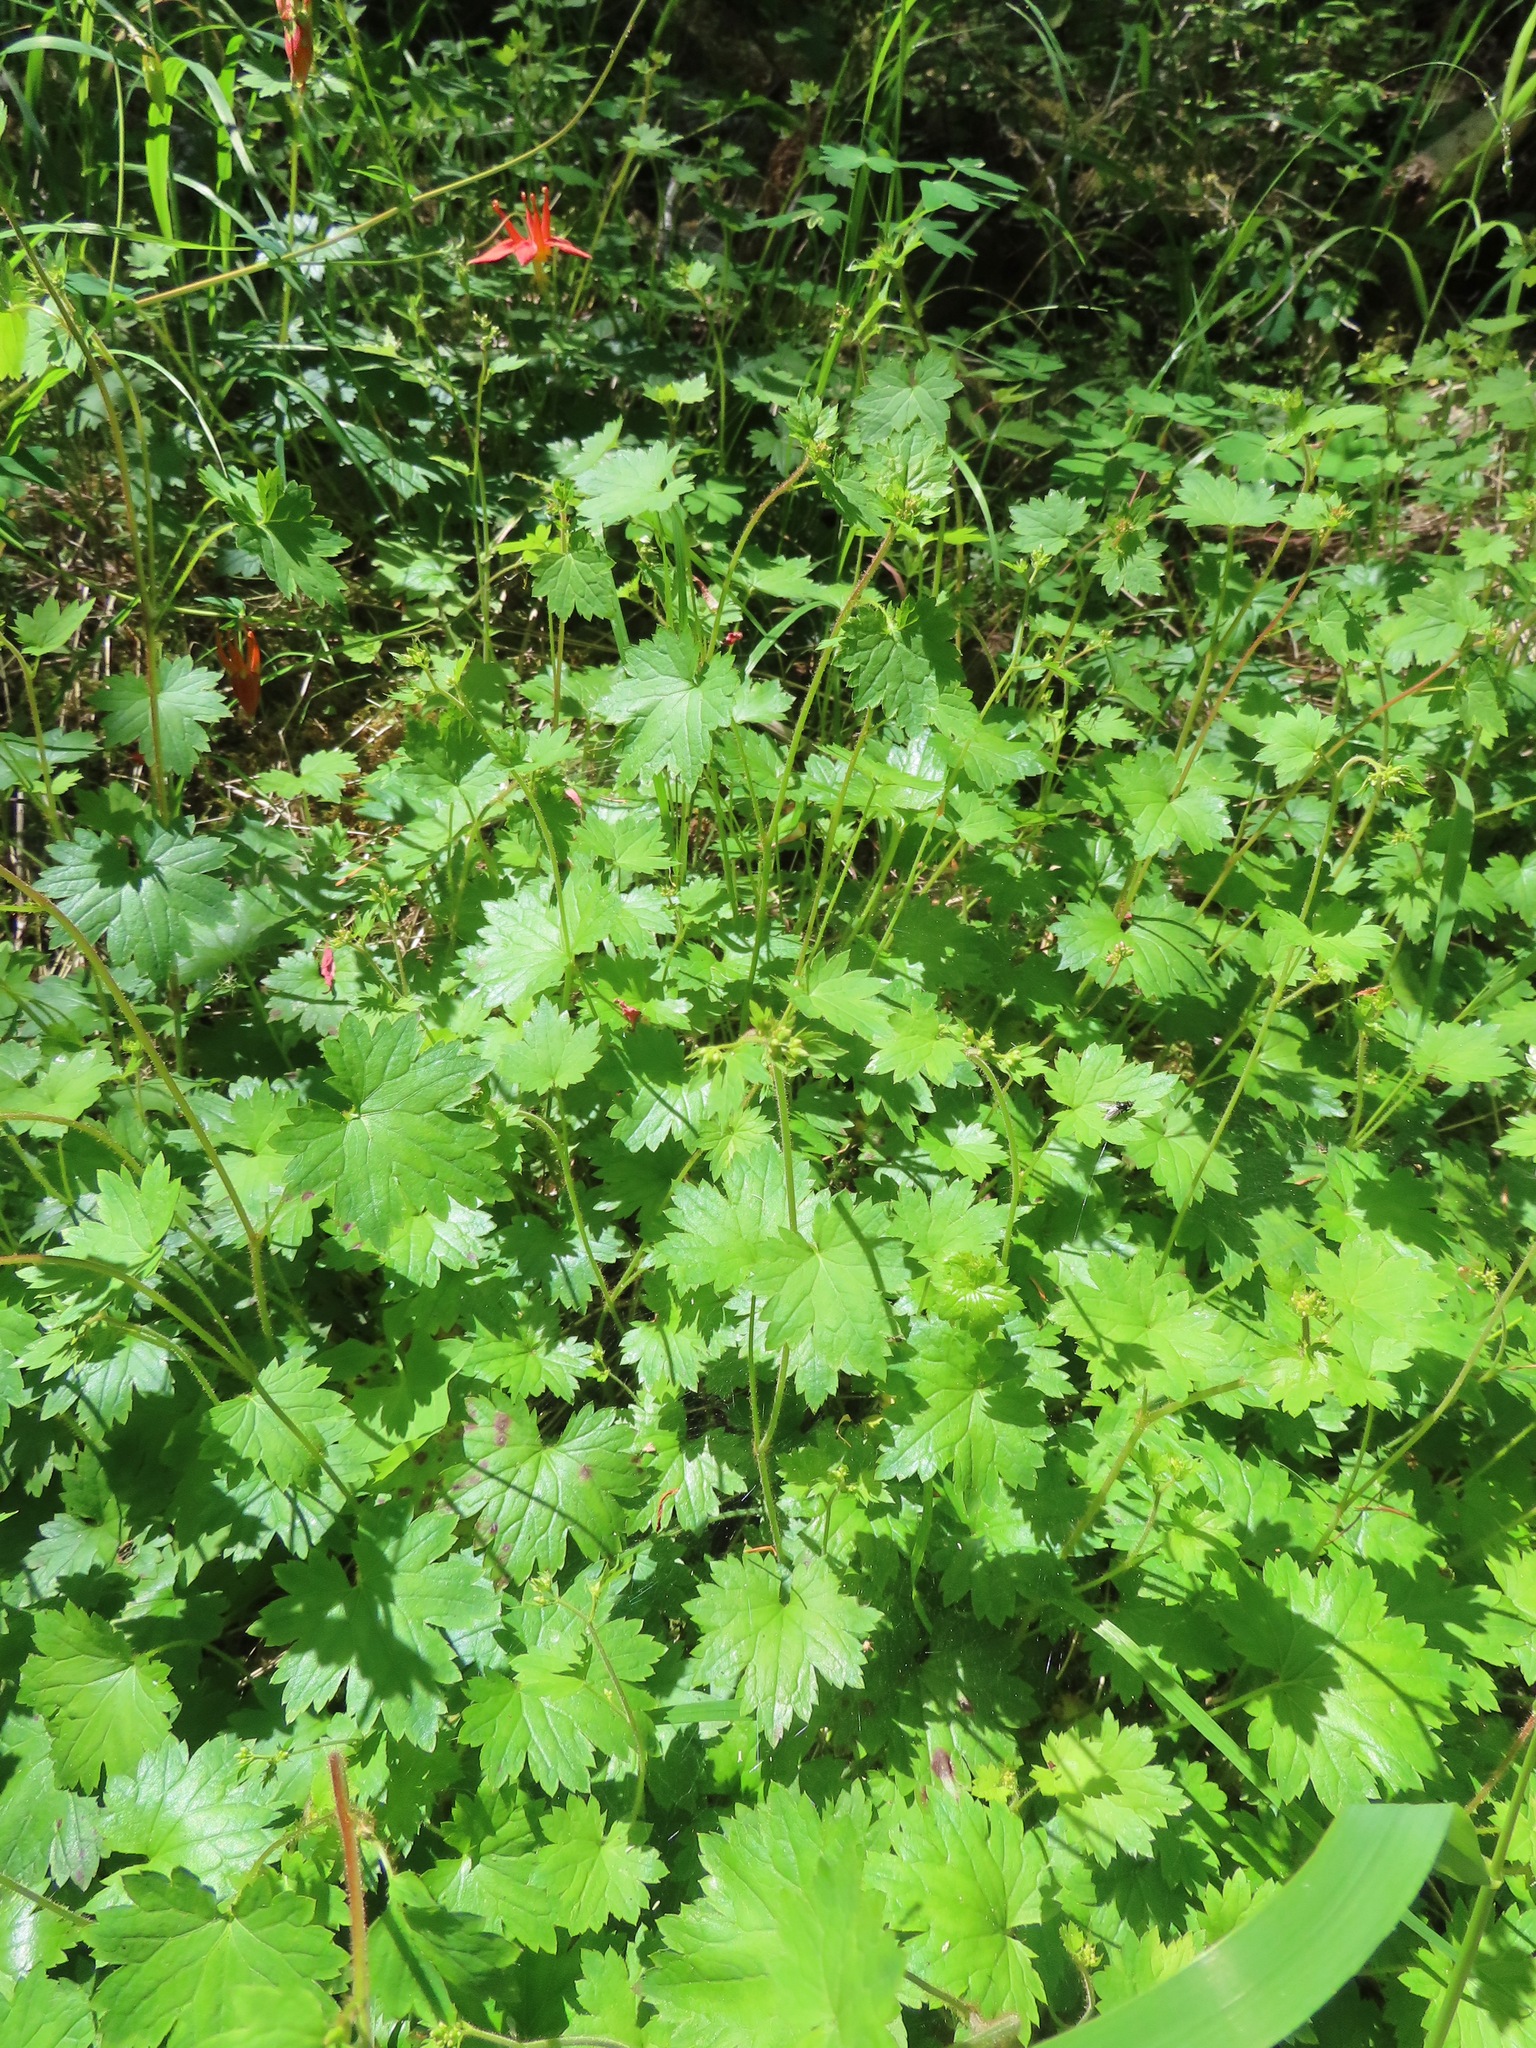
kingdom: Plantae
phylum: Tracheophyta
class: Magnoliopsida
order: Saxifragales
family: Saxifragaceae
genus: Boykinia
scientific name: Boykinia occidentalis
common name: Coast boykinia
